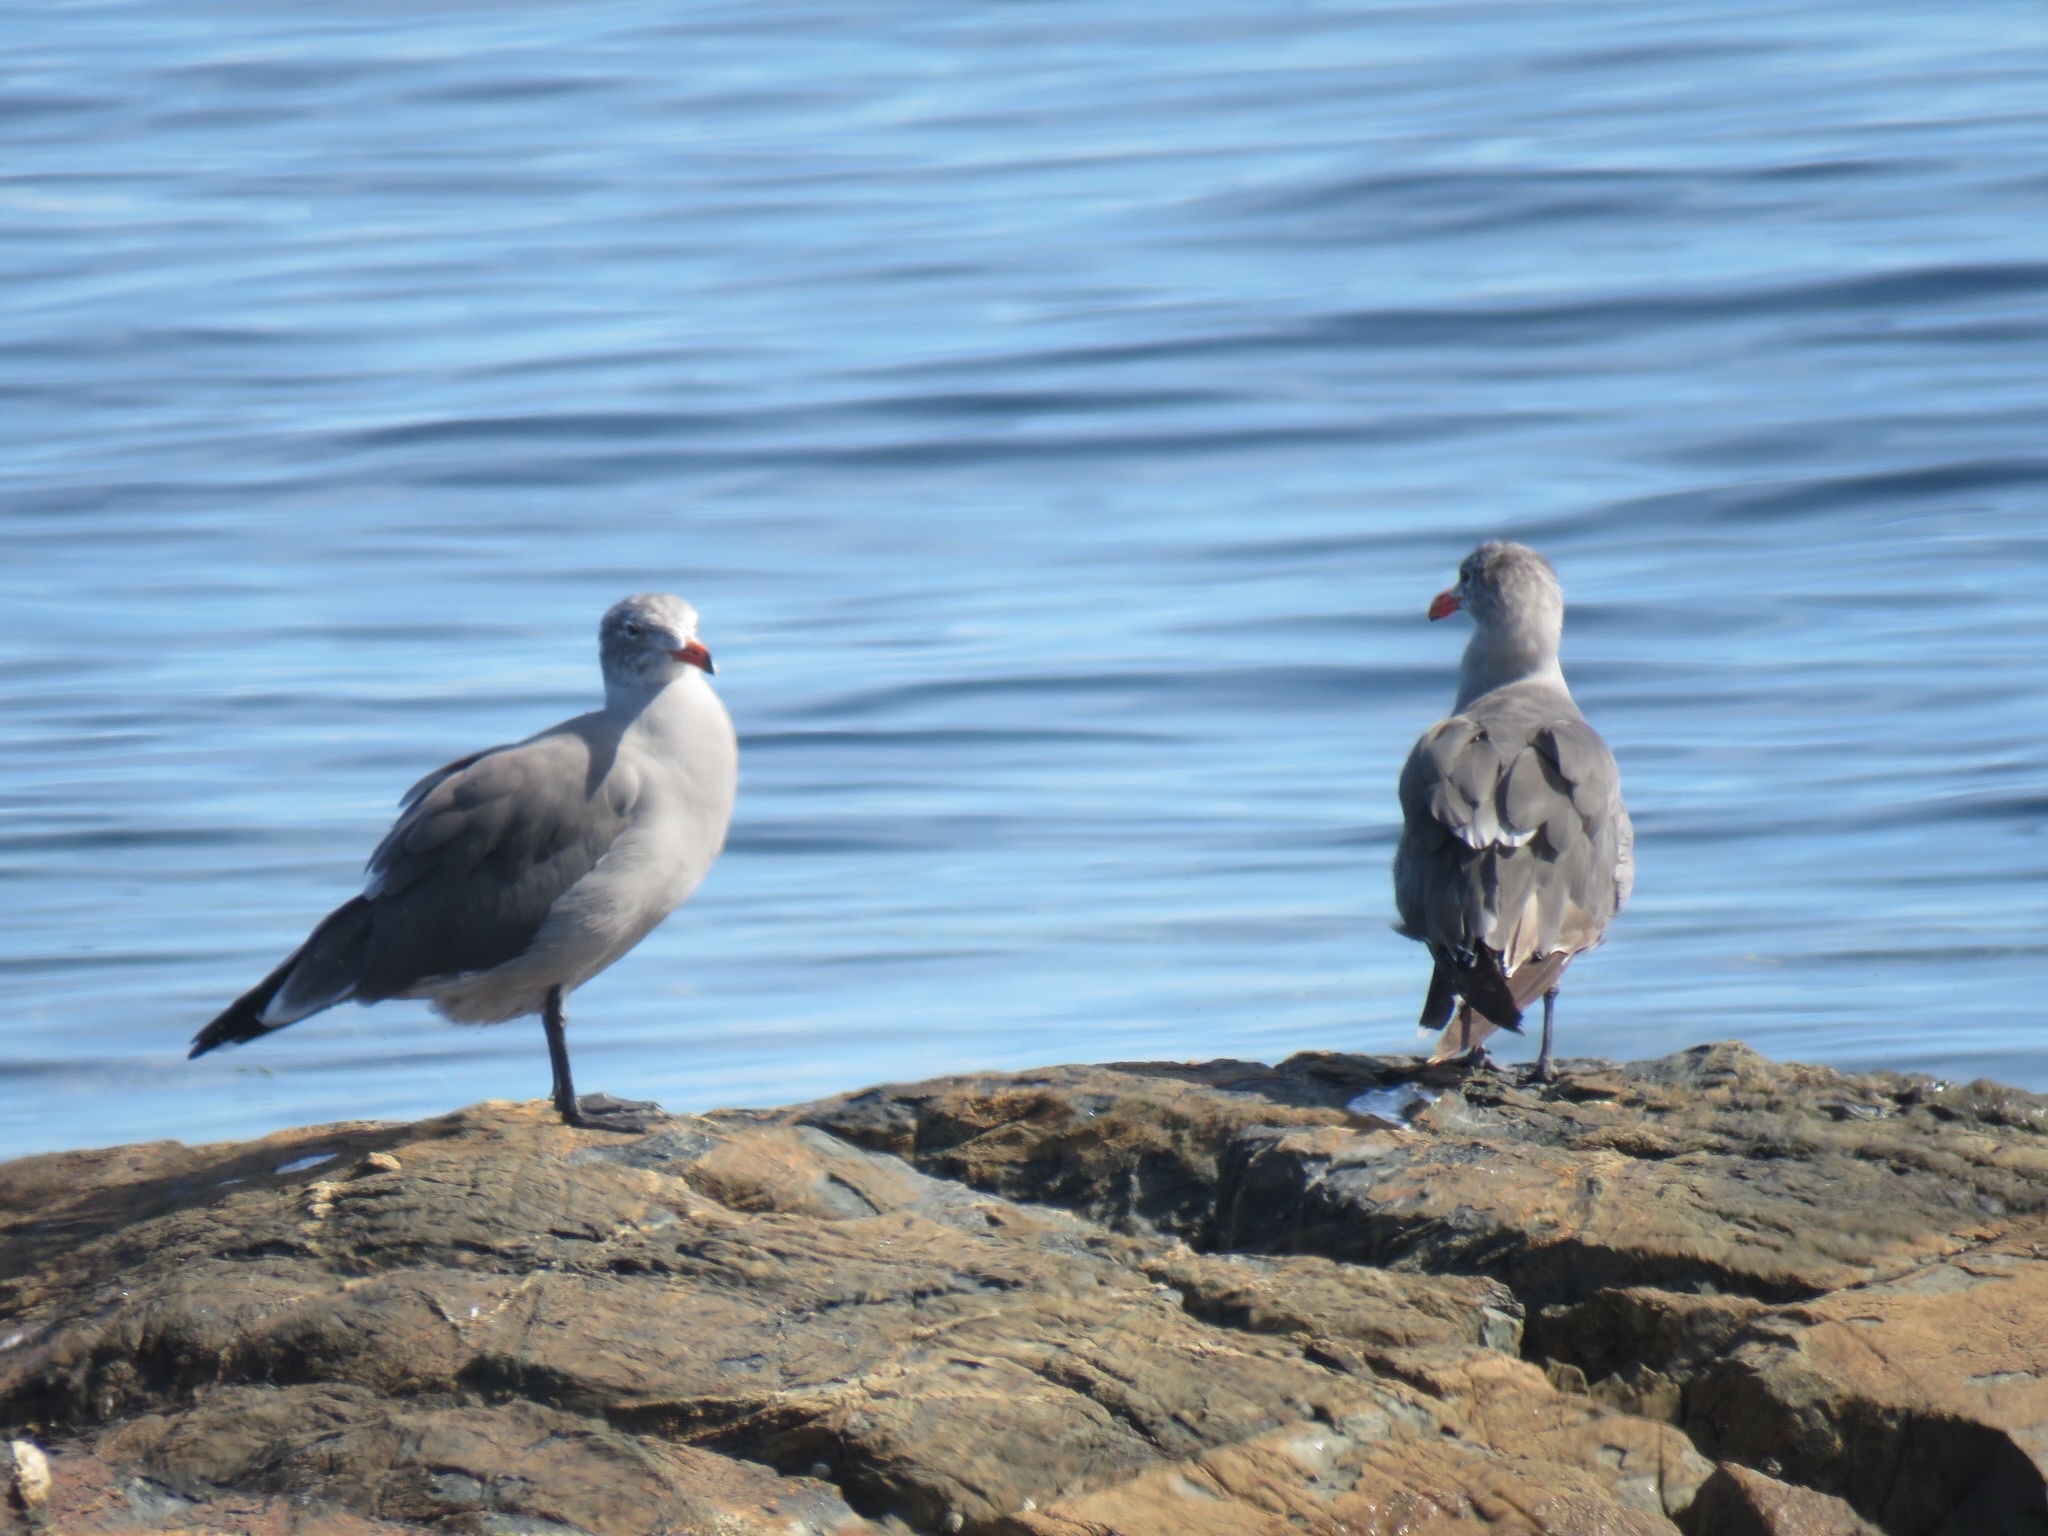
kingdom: Animalia
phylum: Chordata
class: Aves
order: Charadriiformes
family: Laridae
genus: Larus
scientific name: Larus heermanni
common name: Heermann's gull
